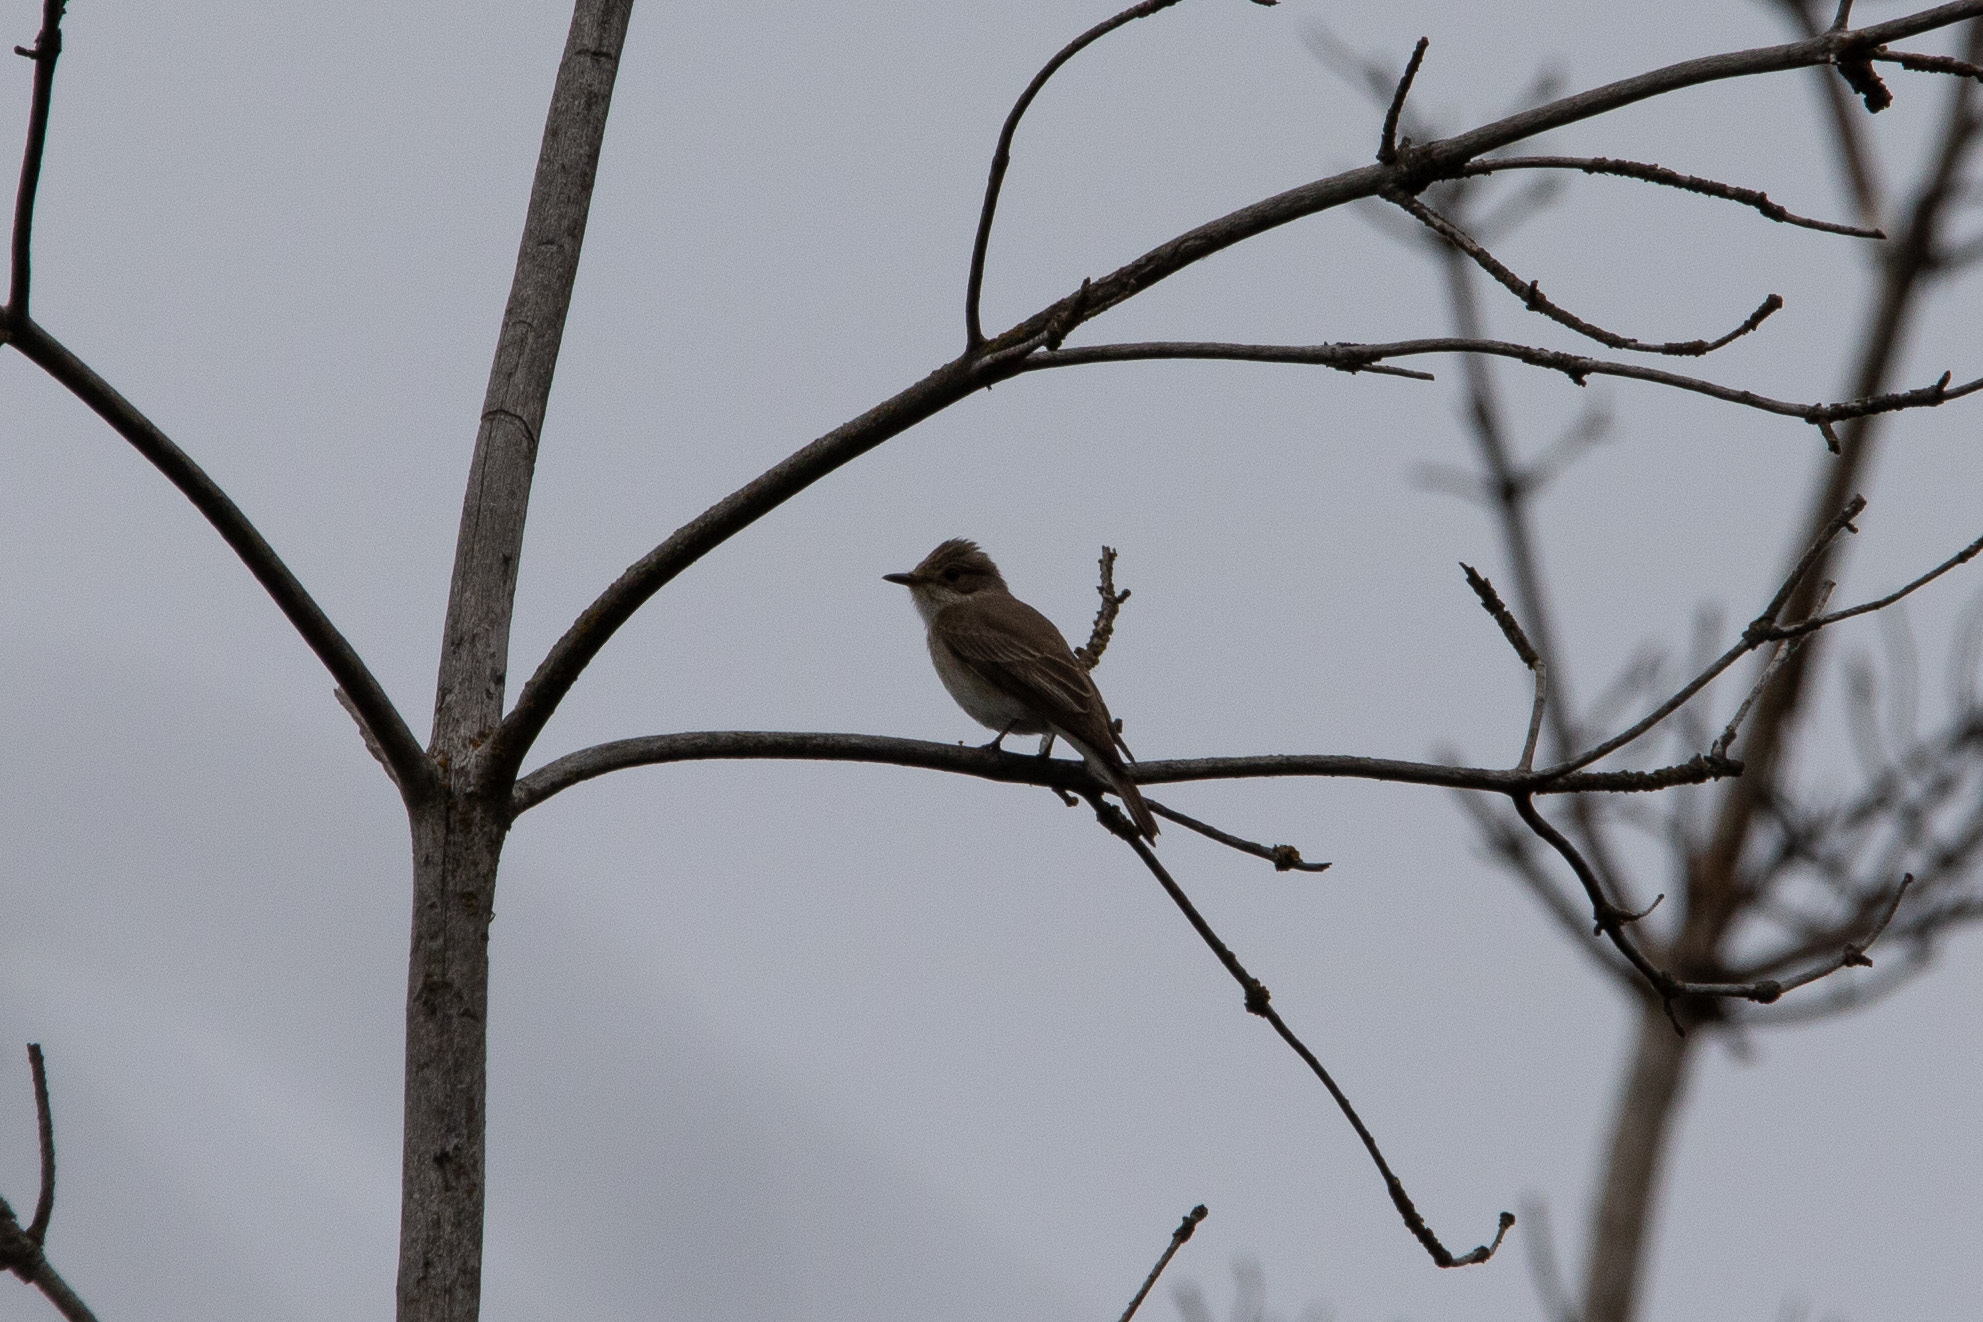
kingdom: Animalia
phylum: Chordata
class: Aves
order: Passeriformes
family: Muscicapidae
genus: Muscicapa
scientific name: Muscicapa striata
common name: Spotted flycatcher
